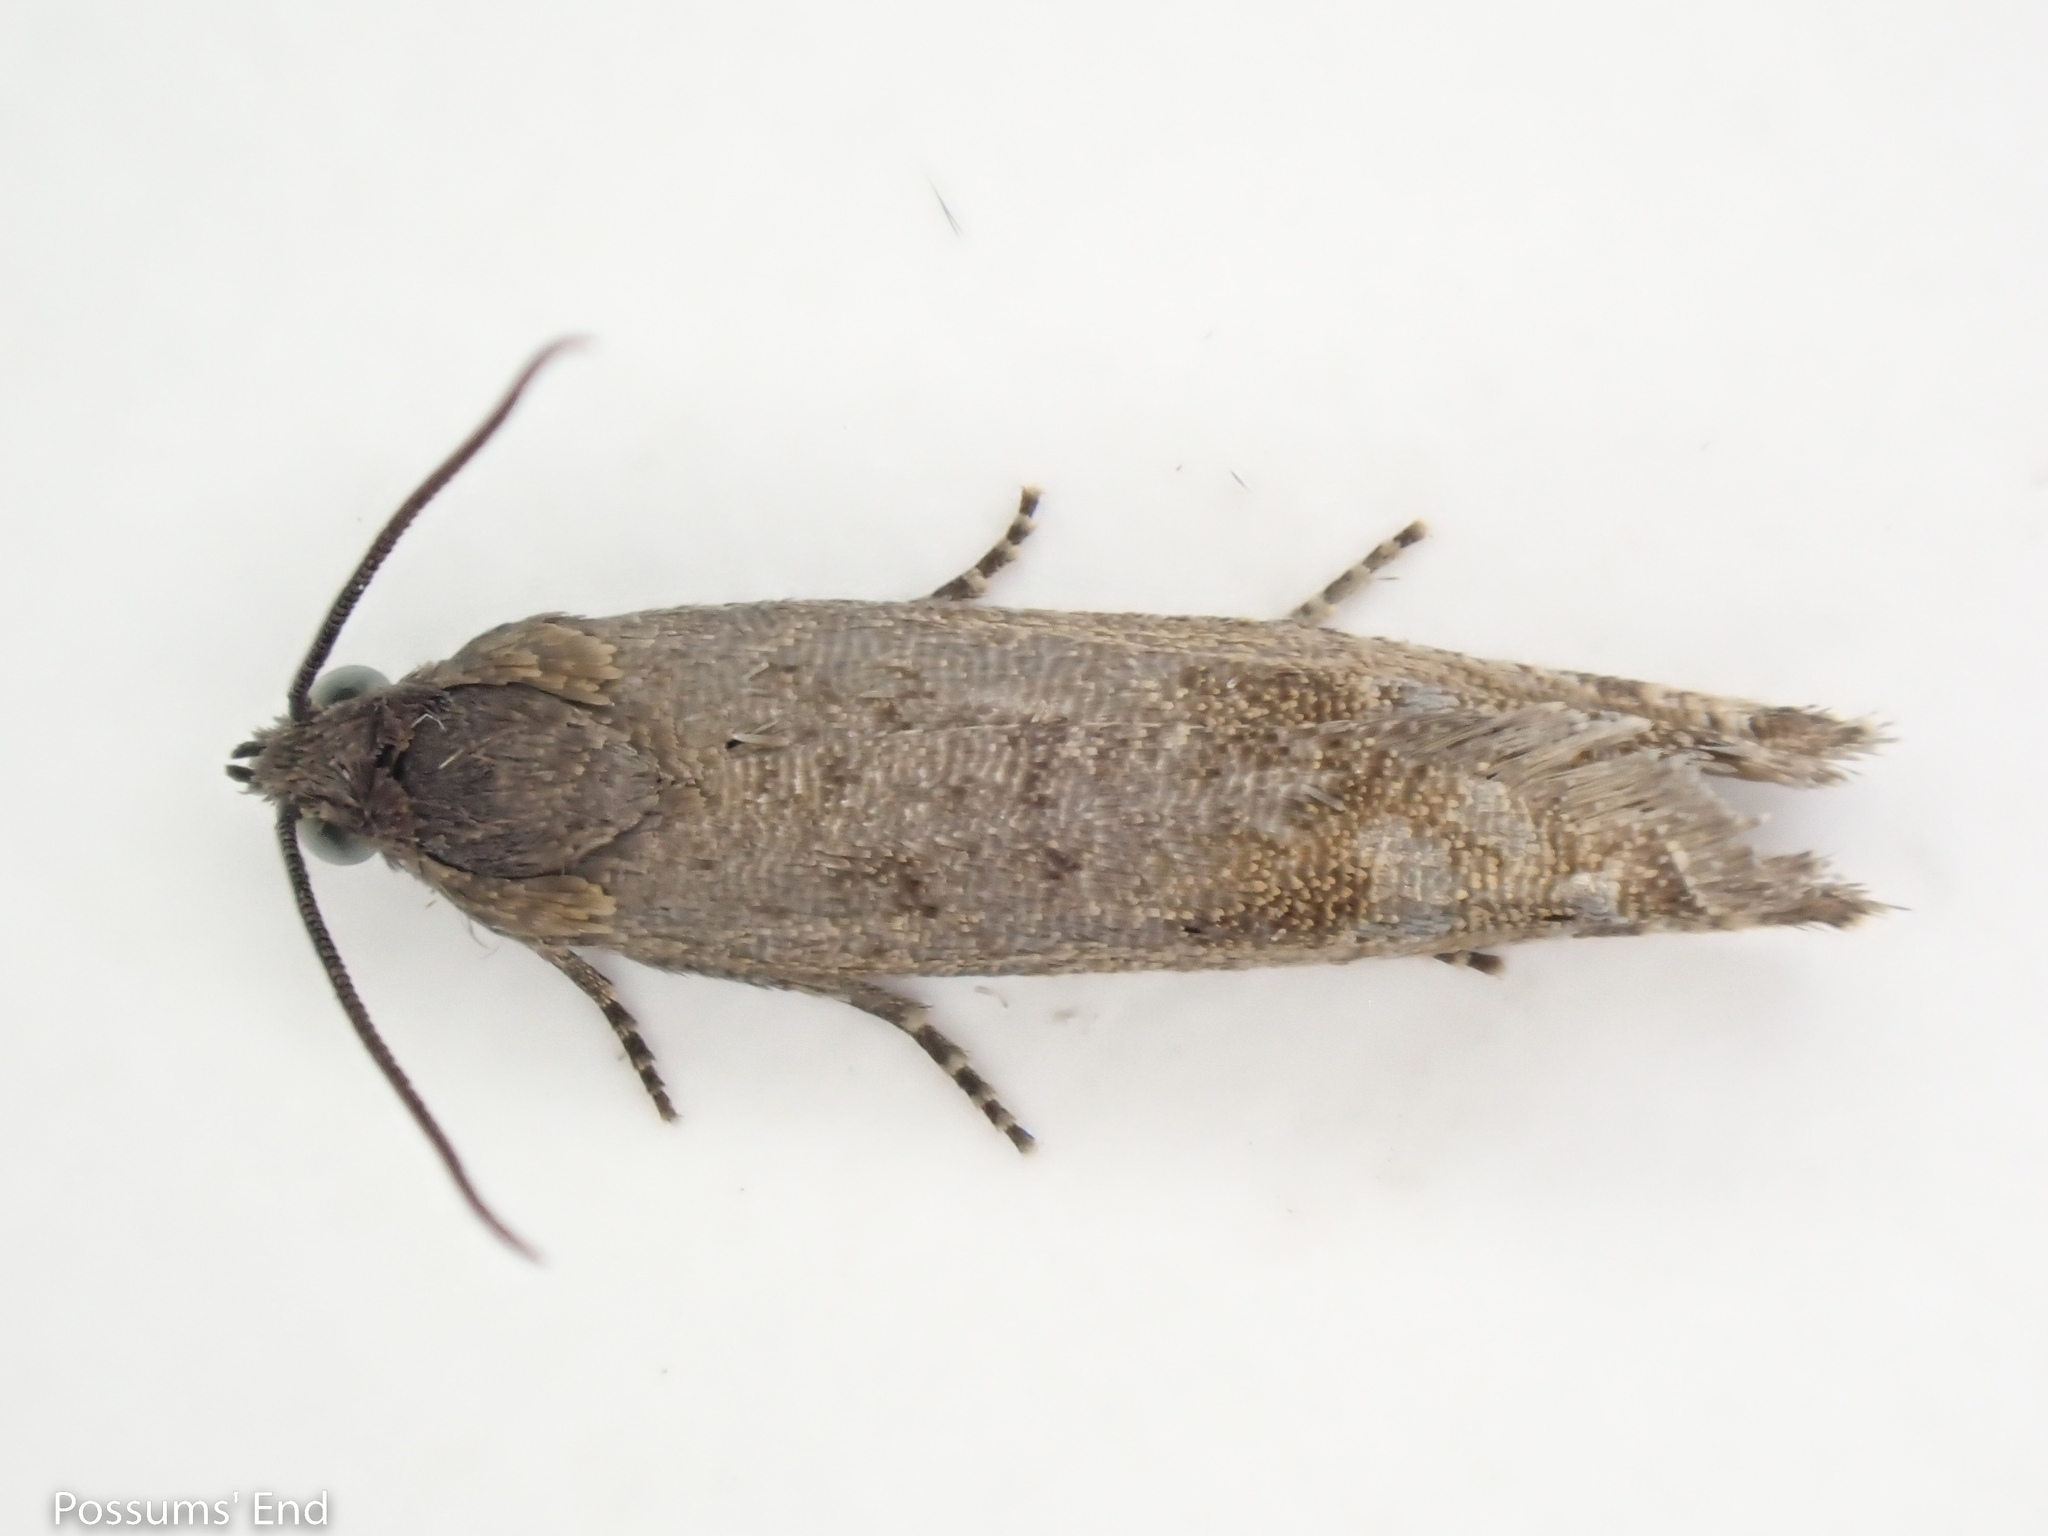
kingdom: Animalia
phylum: Arthropoda
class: Insecta
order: Lepidoptera
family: Tortricidae
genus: Cydia
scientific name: Cydia succedana
